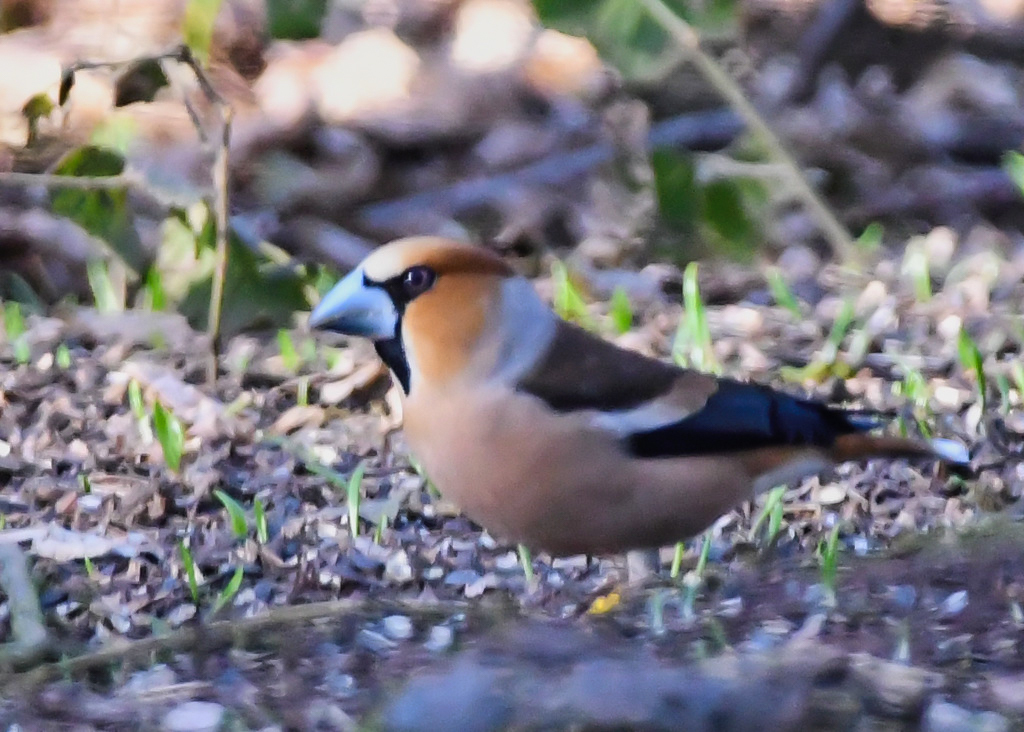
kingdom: Animalia
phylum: Chordata
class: Aves
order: Passeriformes
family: Fringillidae
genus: Coccothraustes
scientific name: Coccothraustes coccothraustes
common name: Hawfinch
